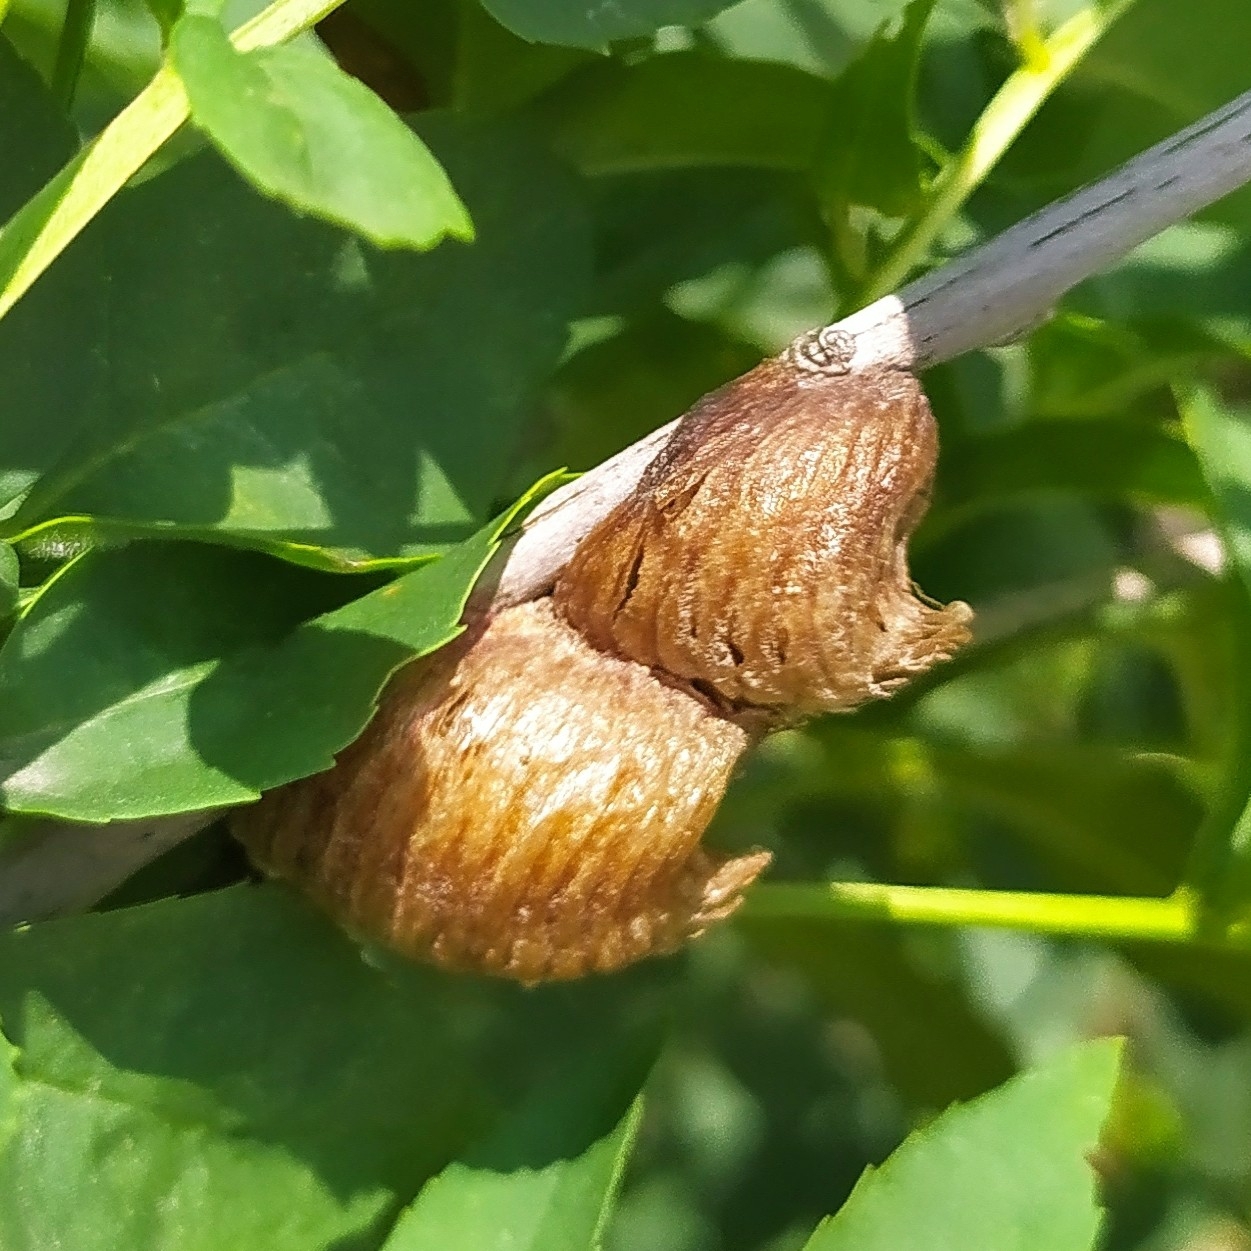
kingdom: Animalia
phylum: Arthropoda
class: Insecta
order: Mantodea
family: Mantidae
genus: Hierodula
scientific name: Hierodula transcaucasica
